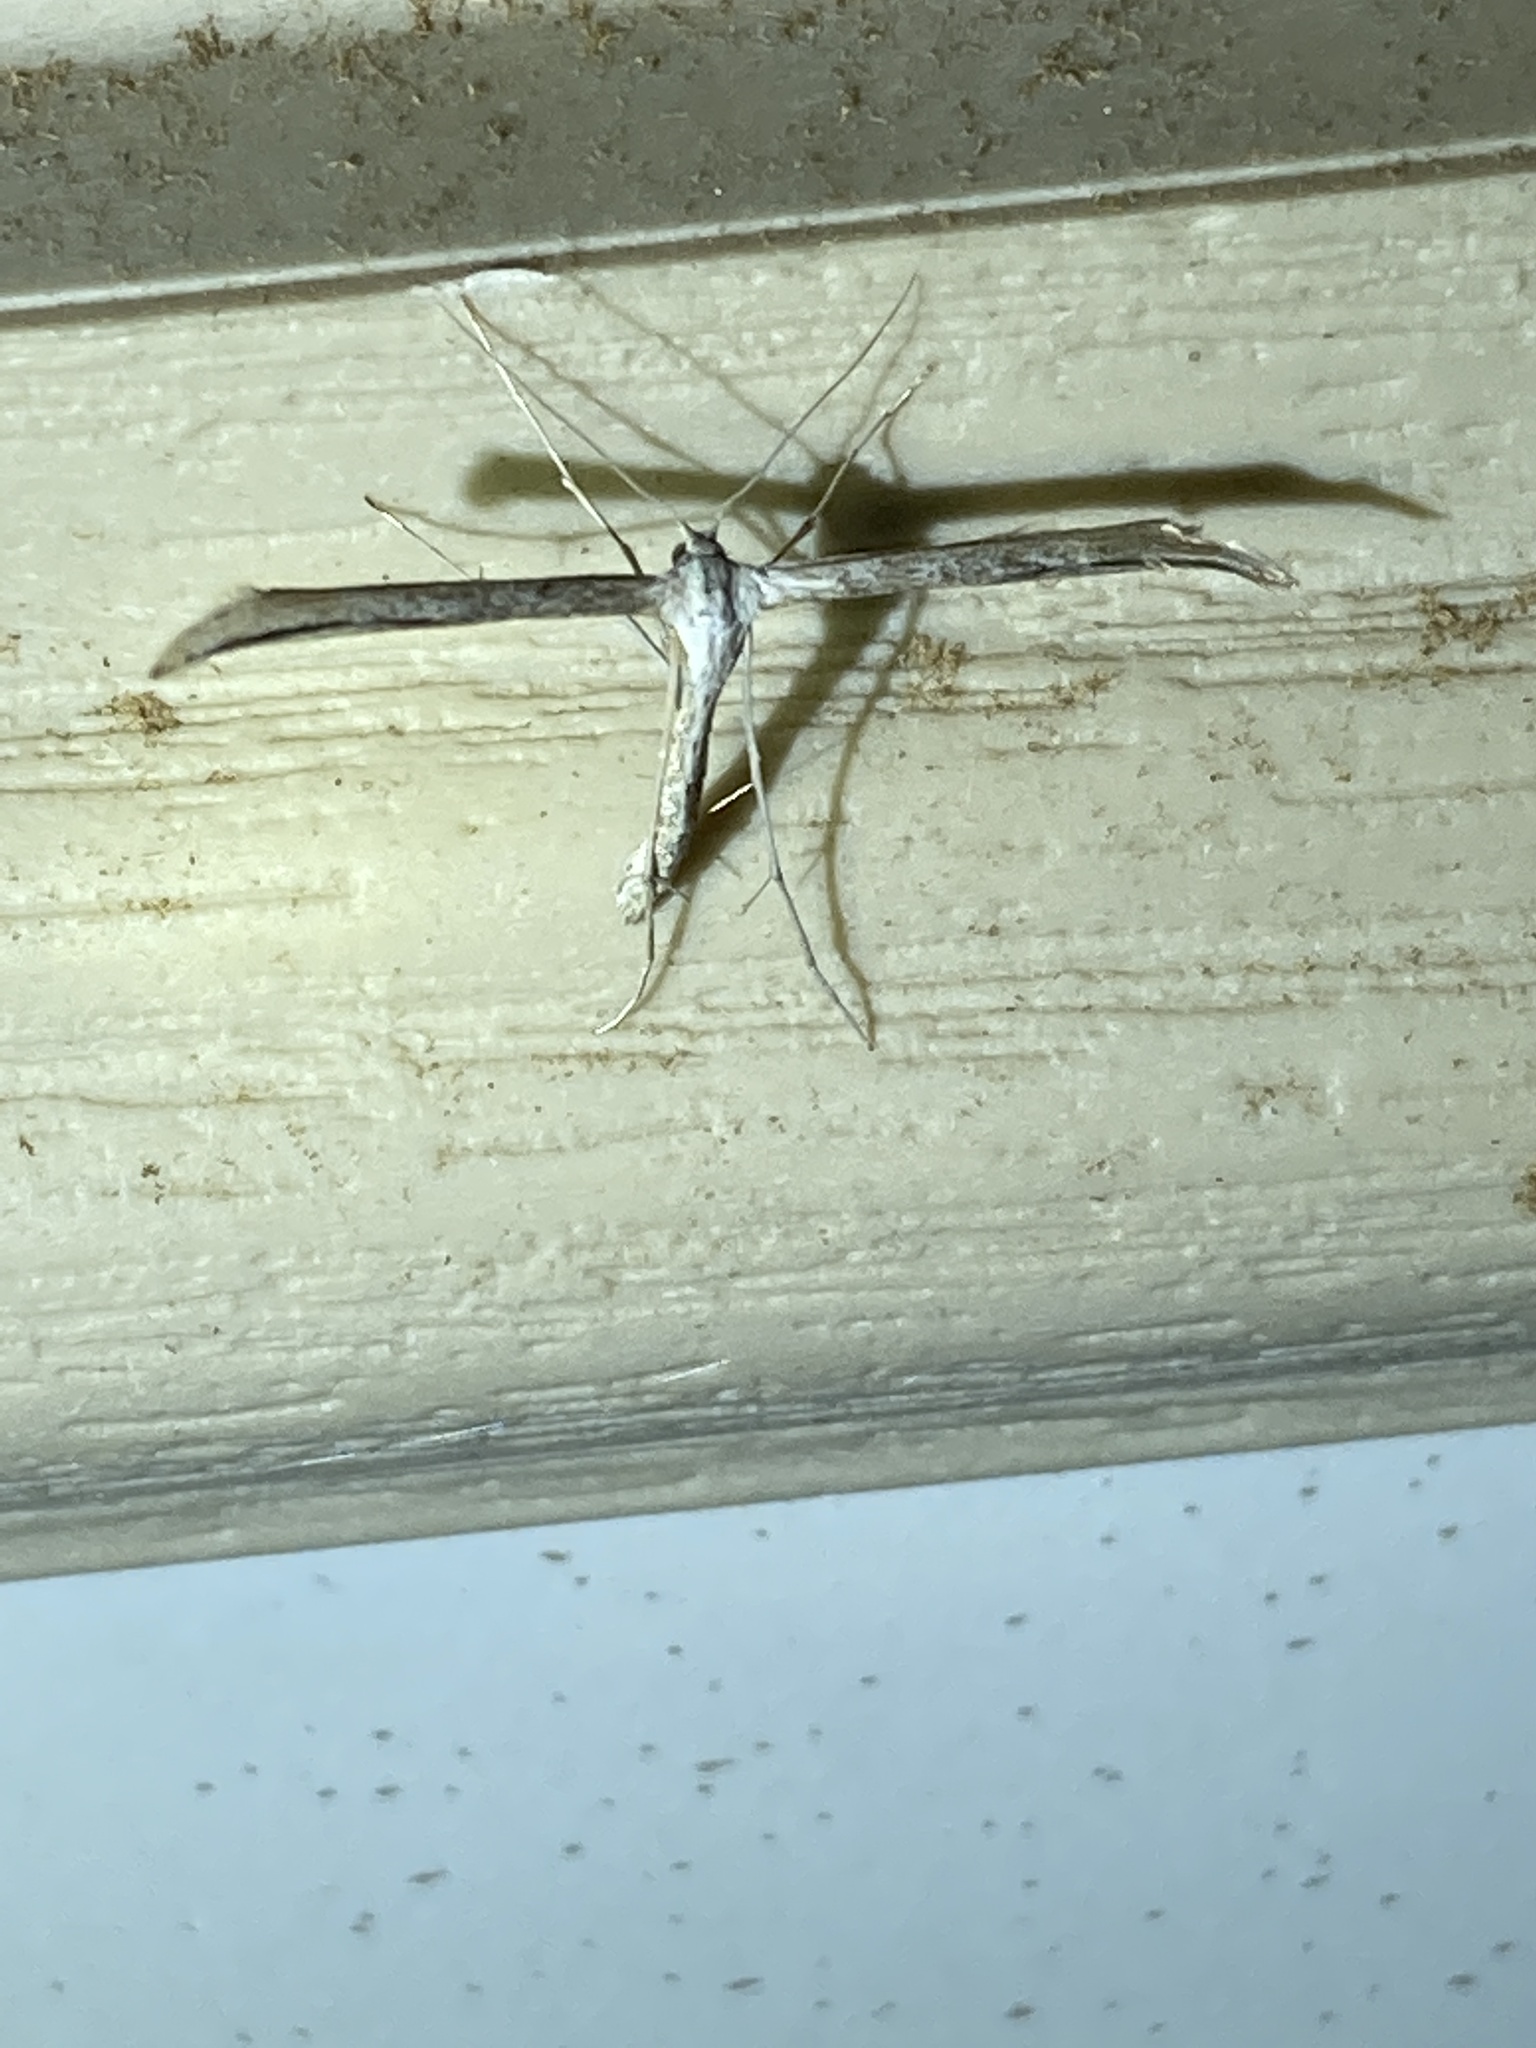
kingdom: Animalia
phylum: Arthropoda
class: Insecta
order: Lepidoptera
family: Pterophoridae
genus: Emmelina
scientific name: Emmelina monodactyla
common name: Common plume
